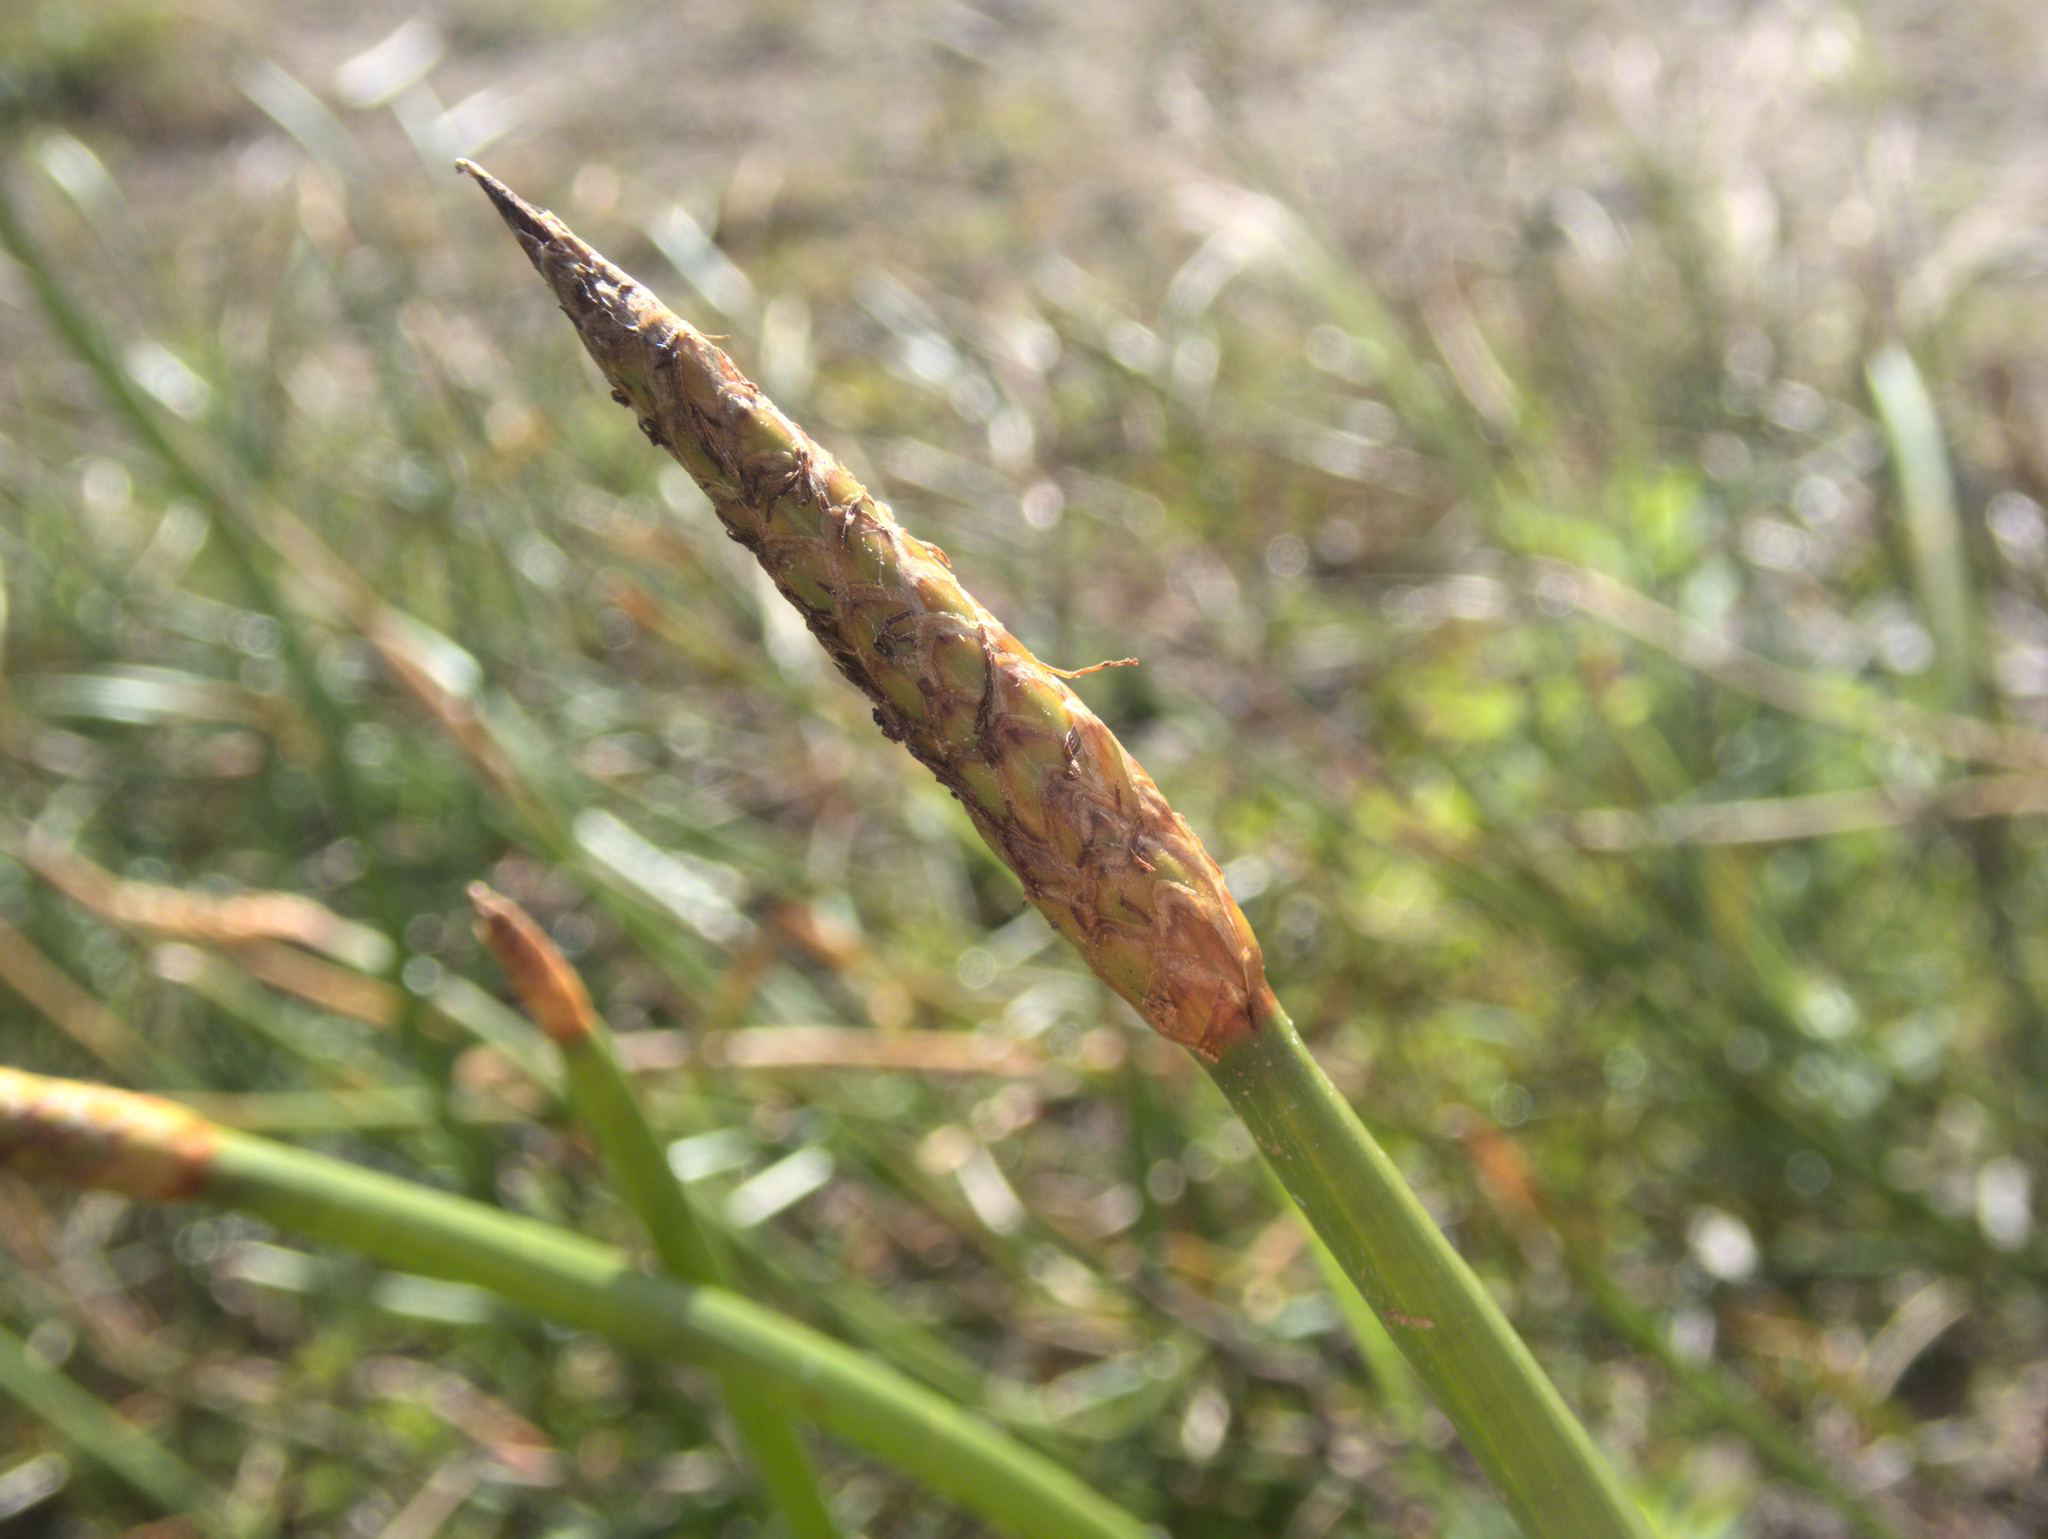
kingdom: Plantae
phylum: Tracheophyta
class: Liliopsida
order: Poales
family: Cyperaceae
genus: Eleocharis
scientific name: Eleocharis sphacelata
